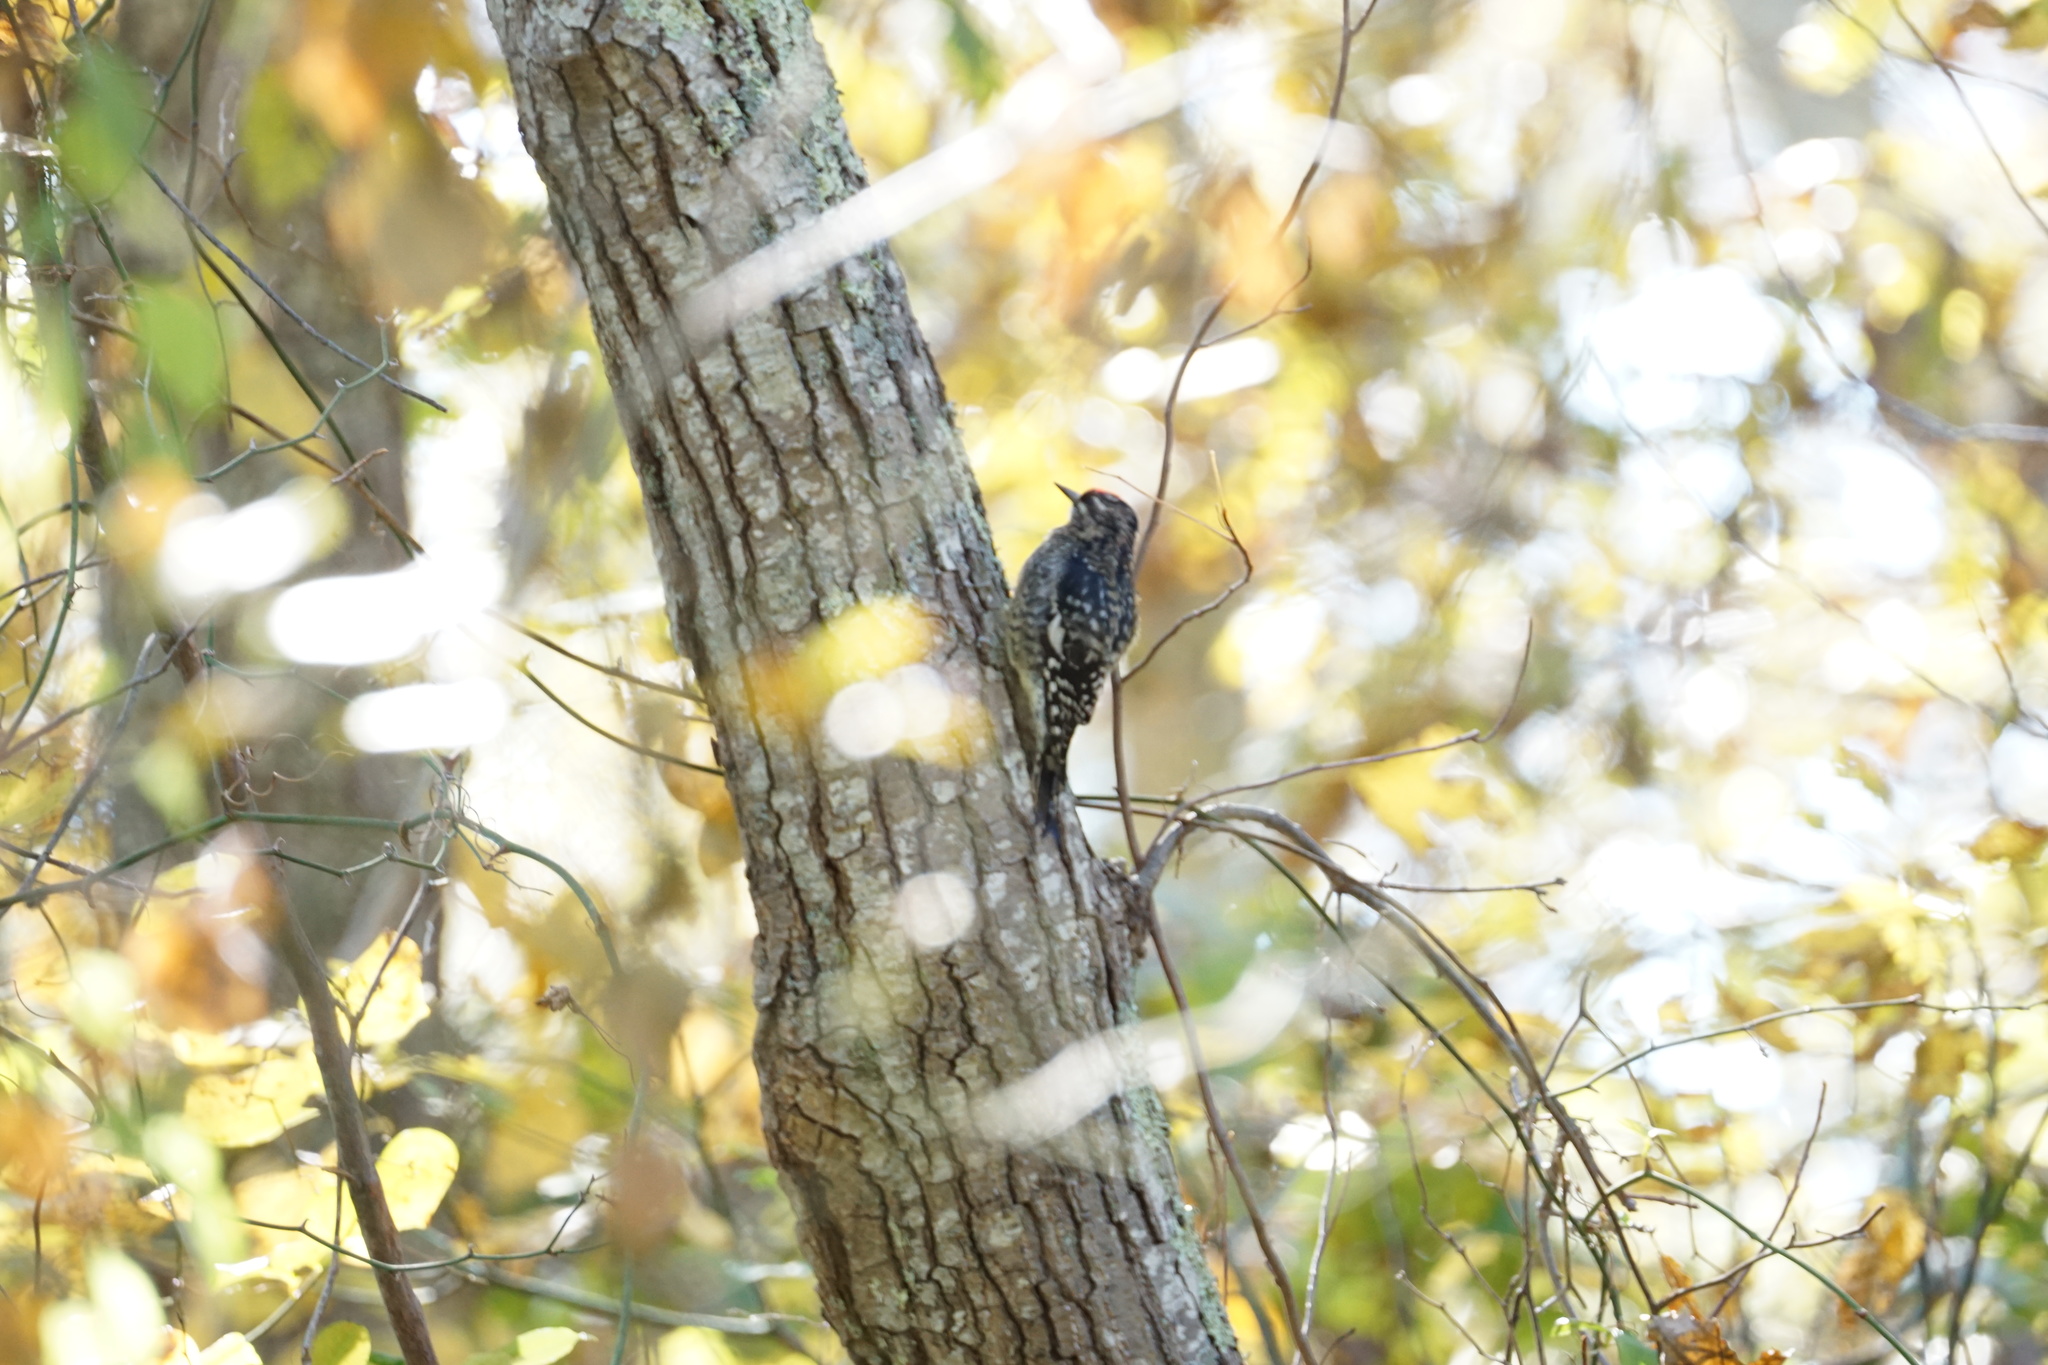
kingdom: Animalia
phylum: Chordata
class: Aves
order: Piciformes
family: Picidae
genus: Sphyrapicus
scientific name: Sphyrapicus varius
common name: Yellow-bellied sapsucker
